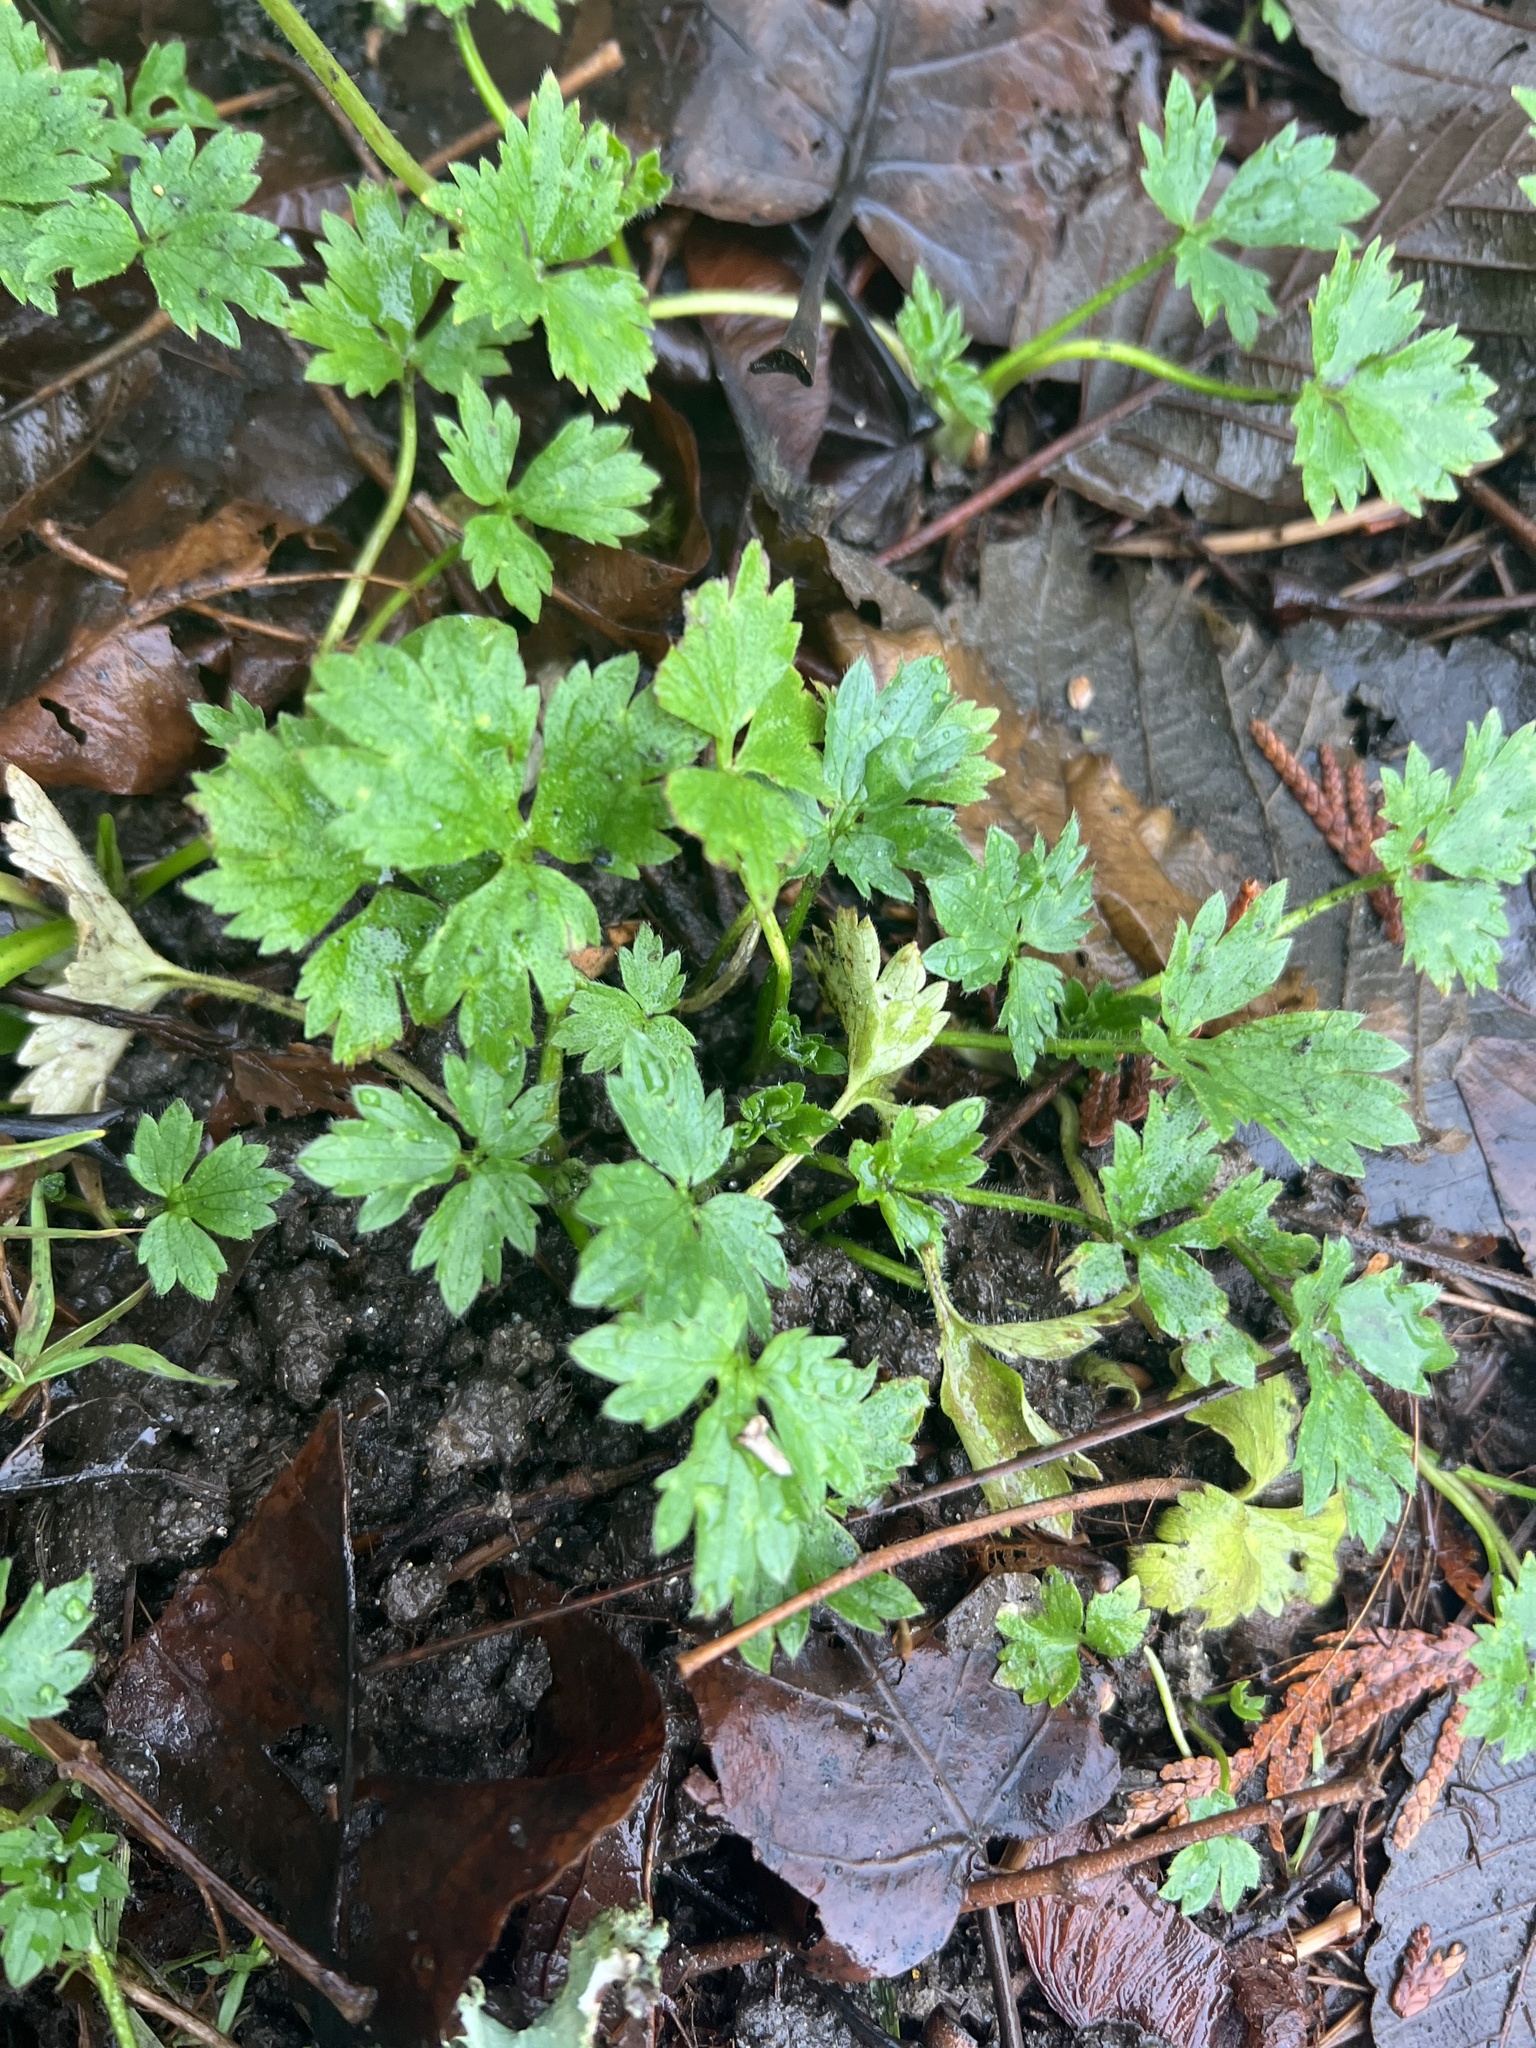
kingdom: Plantae
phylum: Tracheophyta
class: Magnoliopsida
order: Ranunculales
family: Ranunculaceae
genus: Ranunculus
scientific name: Ranunculus repens
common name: Creeping buttercup
